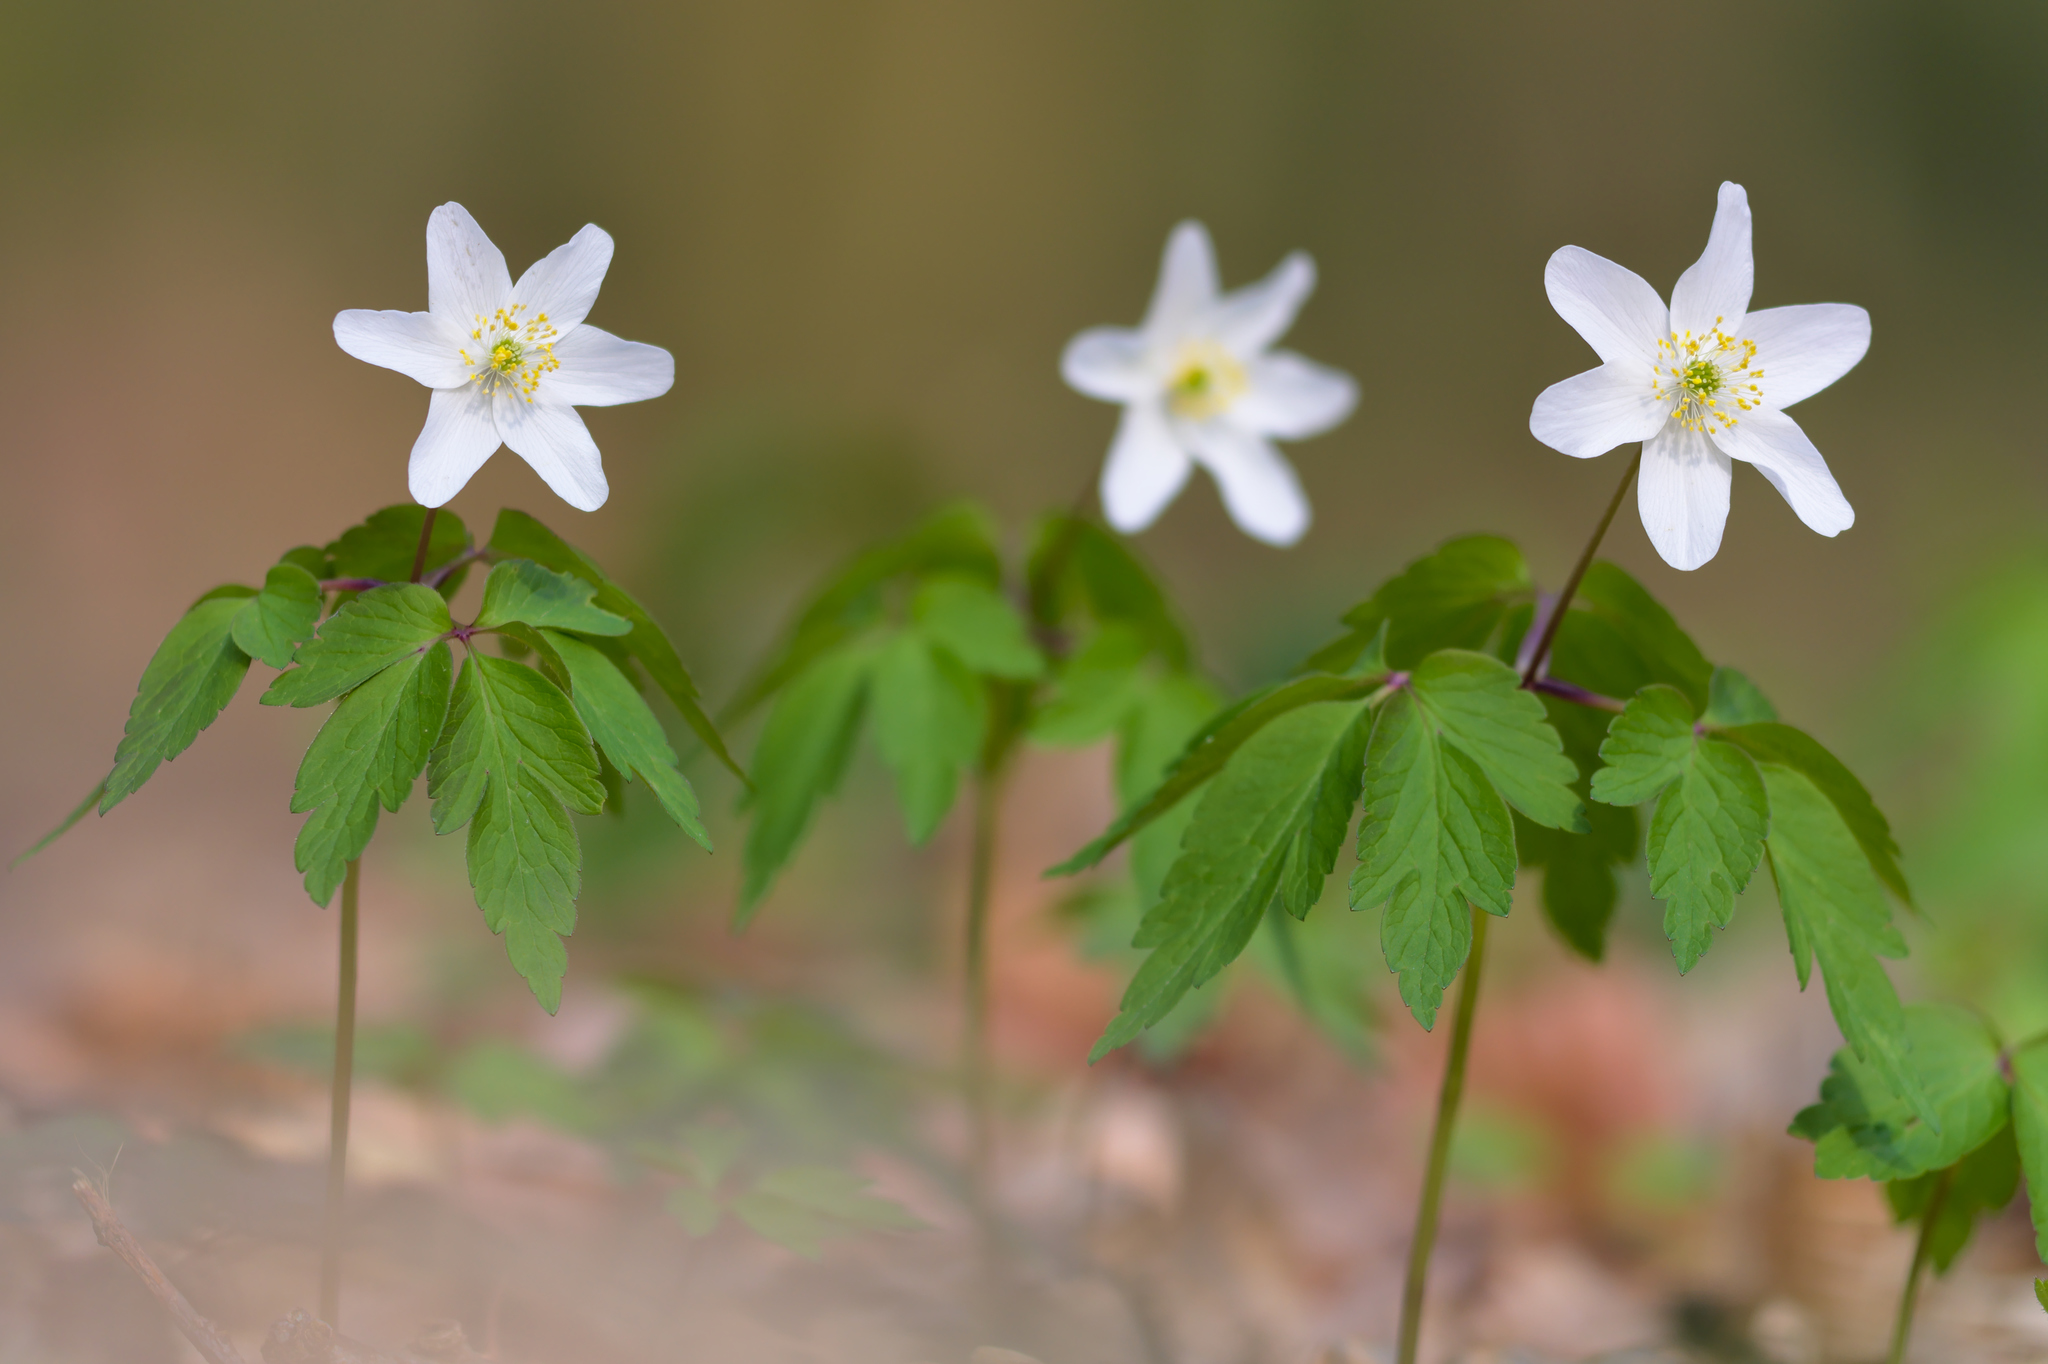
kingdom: Plantae
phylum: Tracheophyta
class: Magnoliopsida
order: Ranunculales
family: Ranunculaceae
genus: Anemone
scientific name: Anemone nemorosa
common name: Wood anemone
